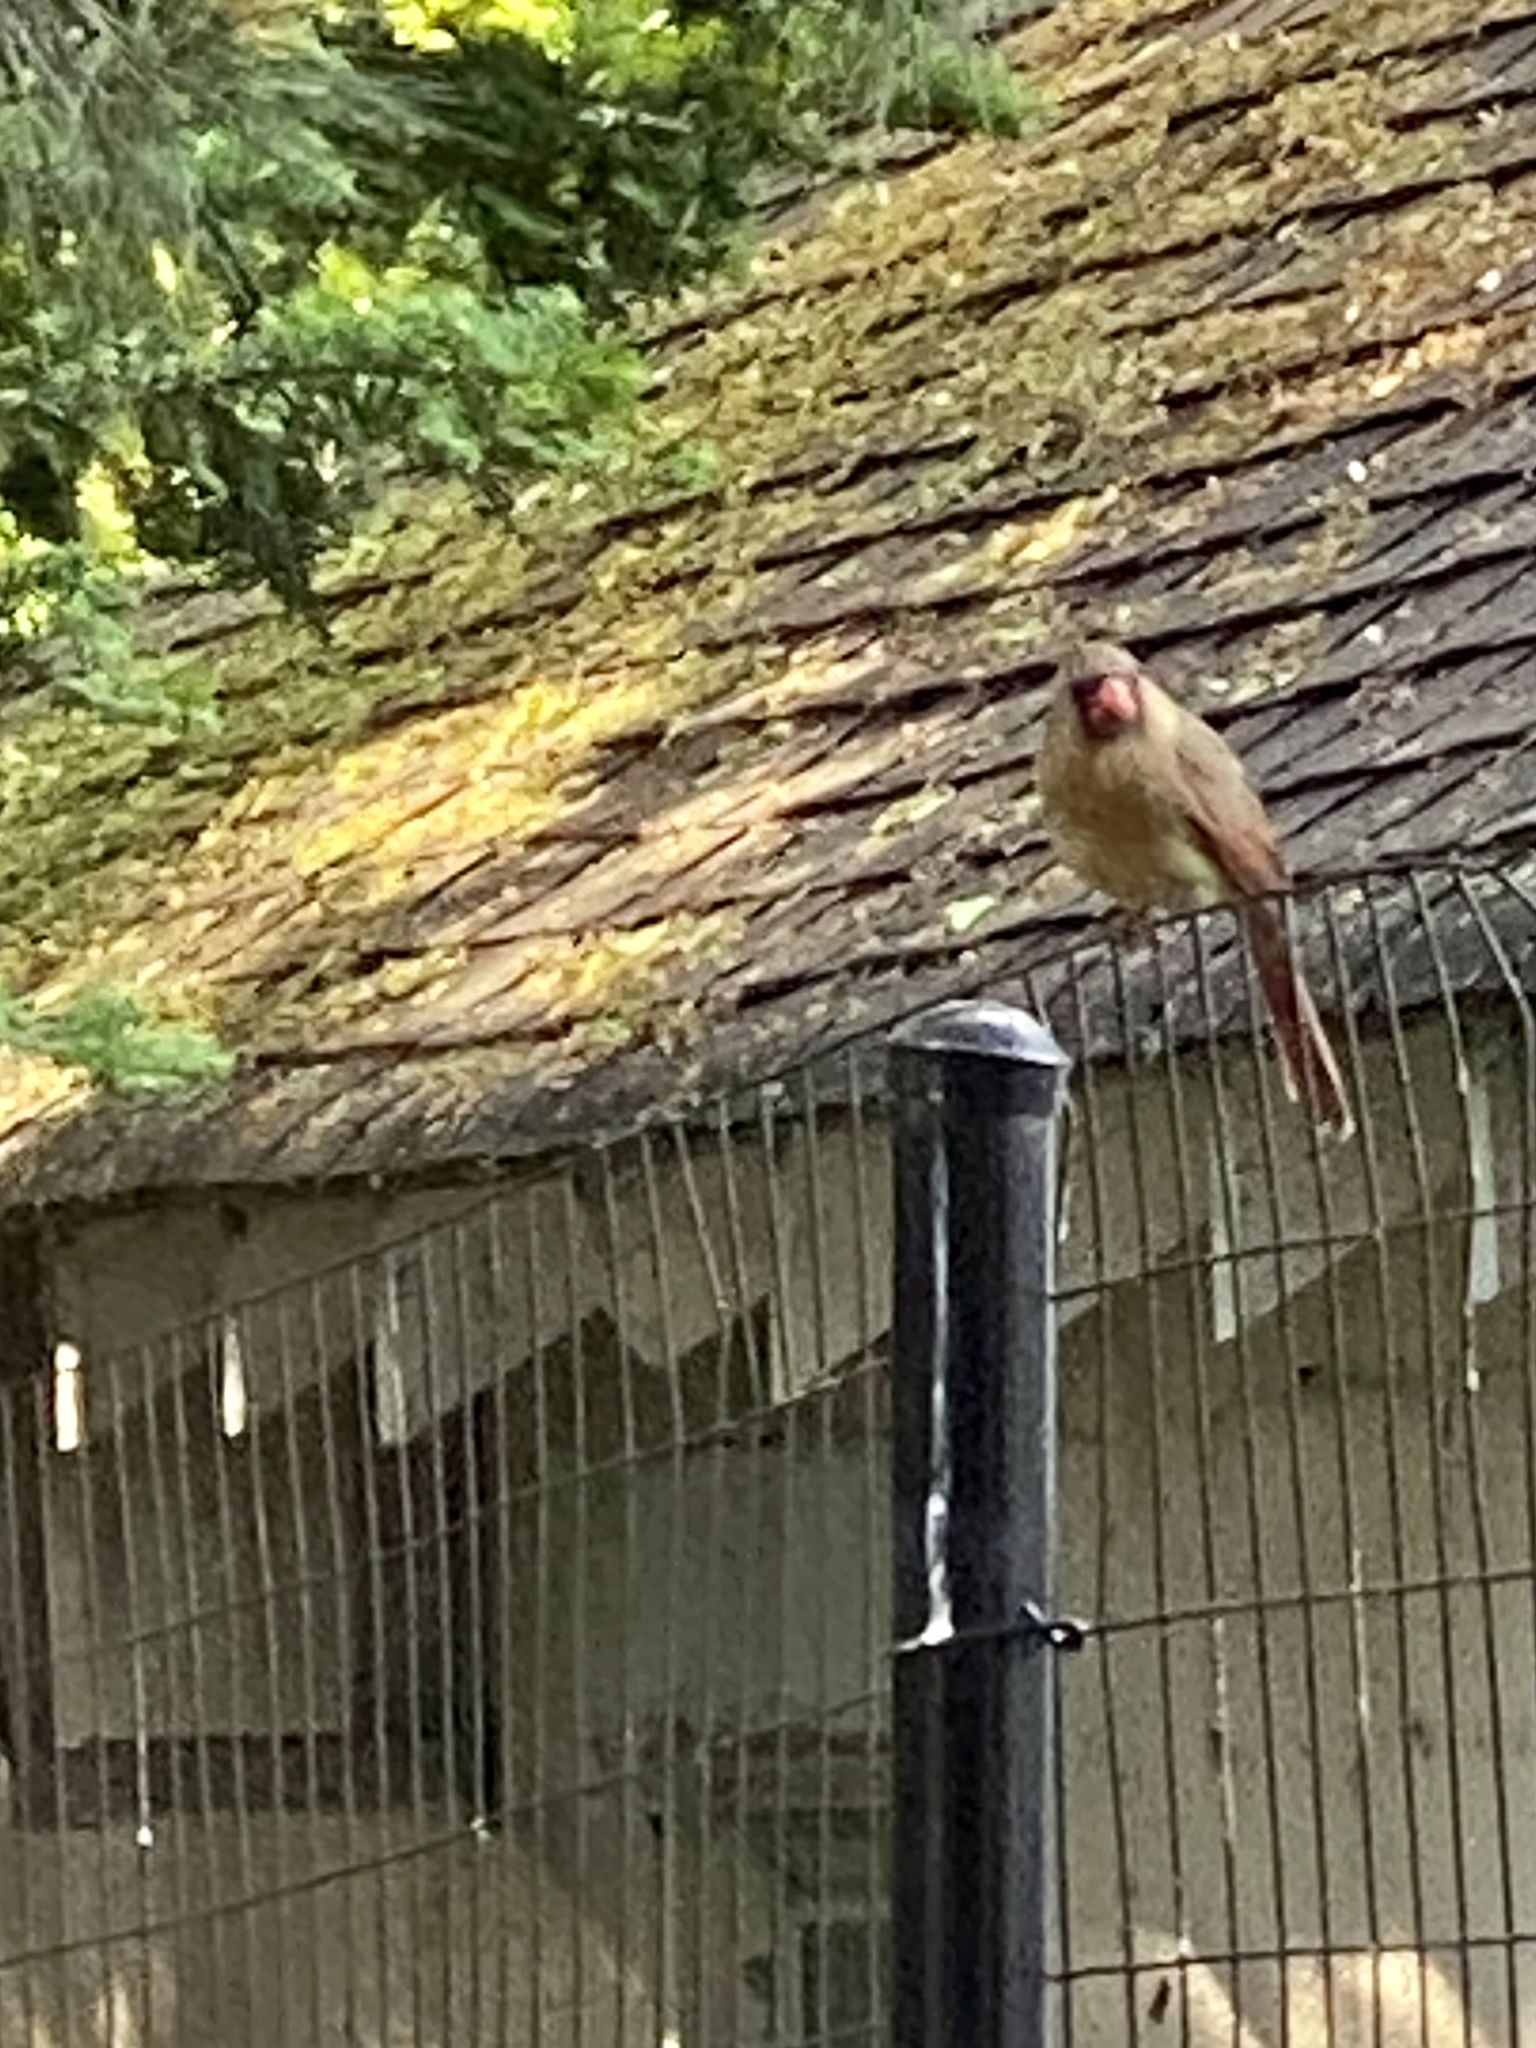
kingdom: Animalia
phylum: Chordata
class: Aves
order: Passeriformes
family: Cardinalidae
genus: Cardinalis
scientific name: Cardinalis cardinalis
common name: Northern cardinal
